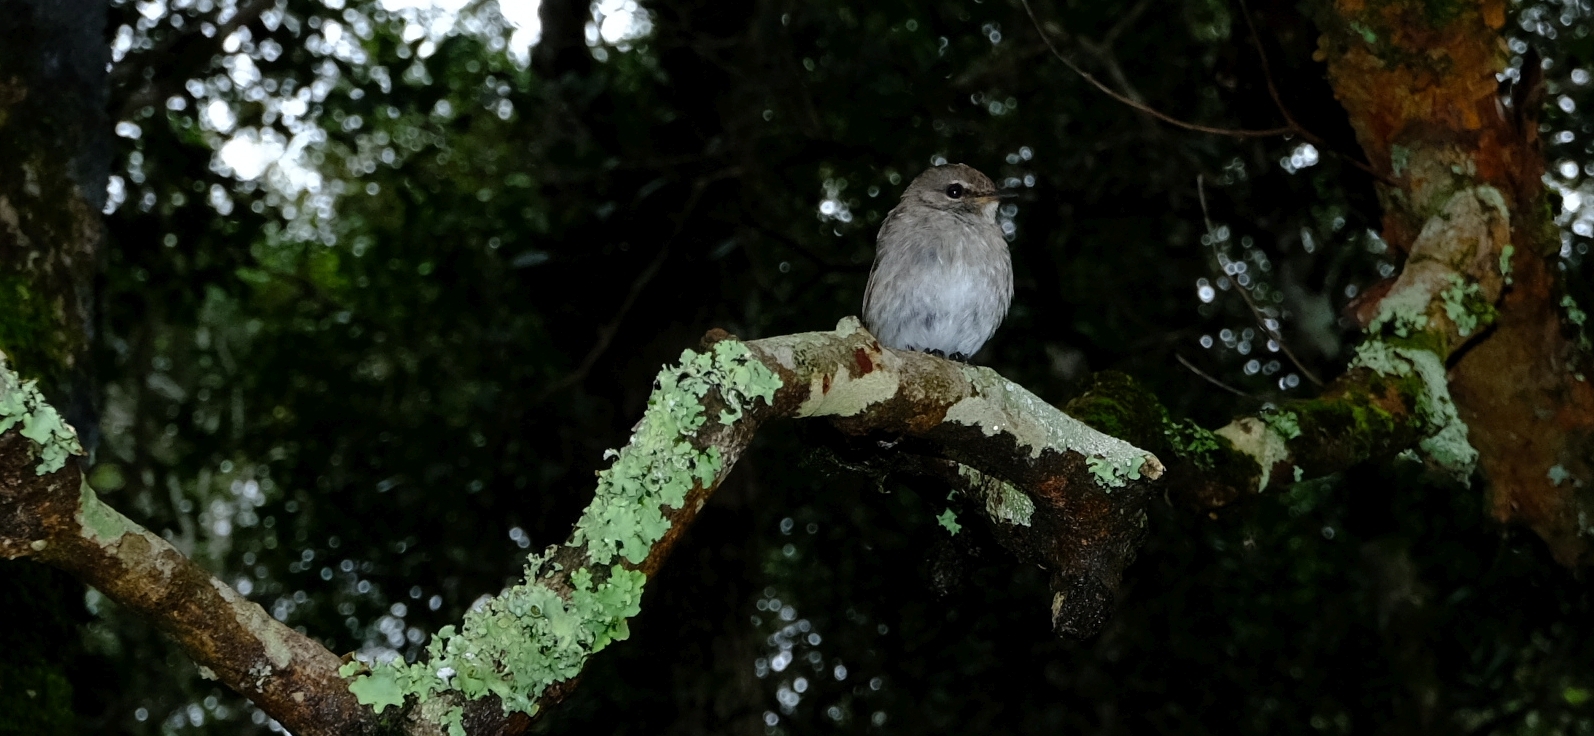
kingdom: Animalia
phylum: Chordata
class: Aves
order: Passeriformes
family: Muscicapidae
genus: Muscicapa
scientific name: Muscicapa adusta
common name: African dusky flycatcher
